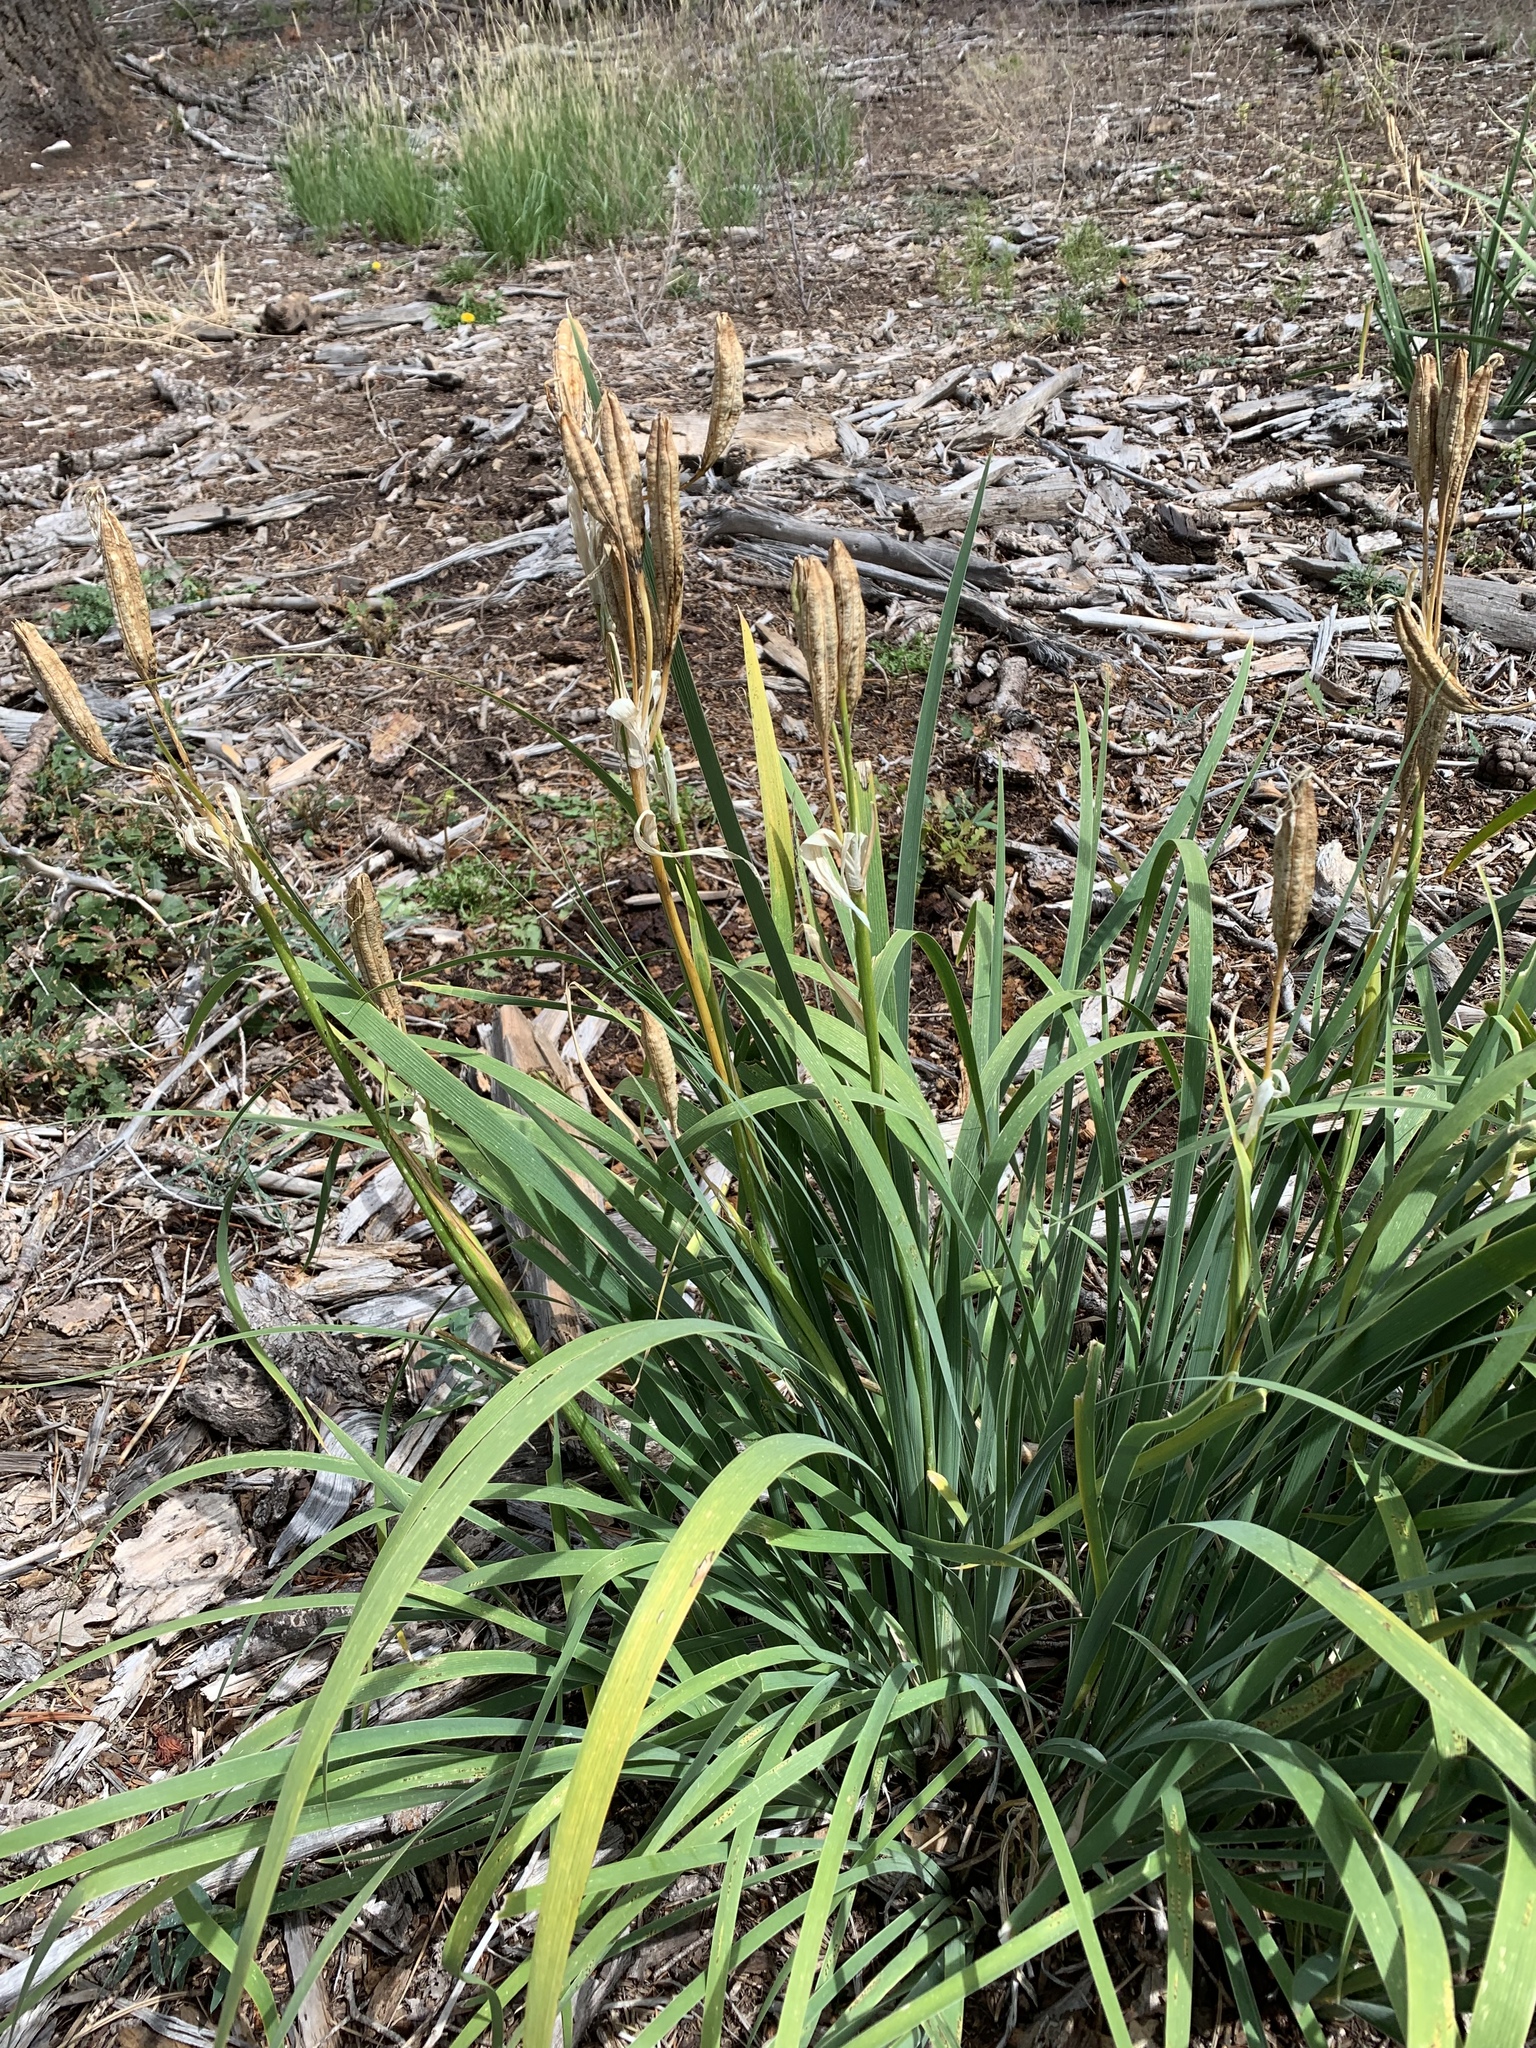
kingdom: Plantae
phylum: Tracheophyta
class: Liliopsida
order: Asparagales
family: Iridaceae
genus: Iris
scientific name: Iris missouriensis
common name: Rocky mountain iris
